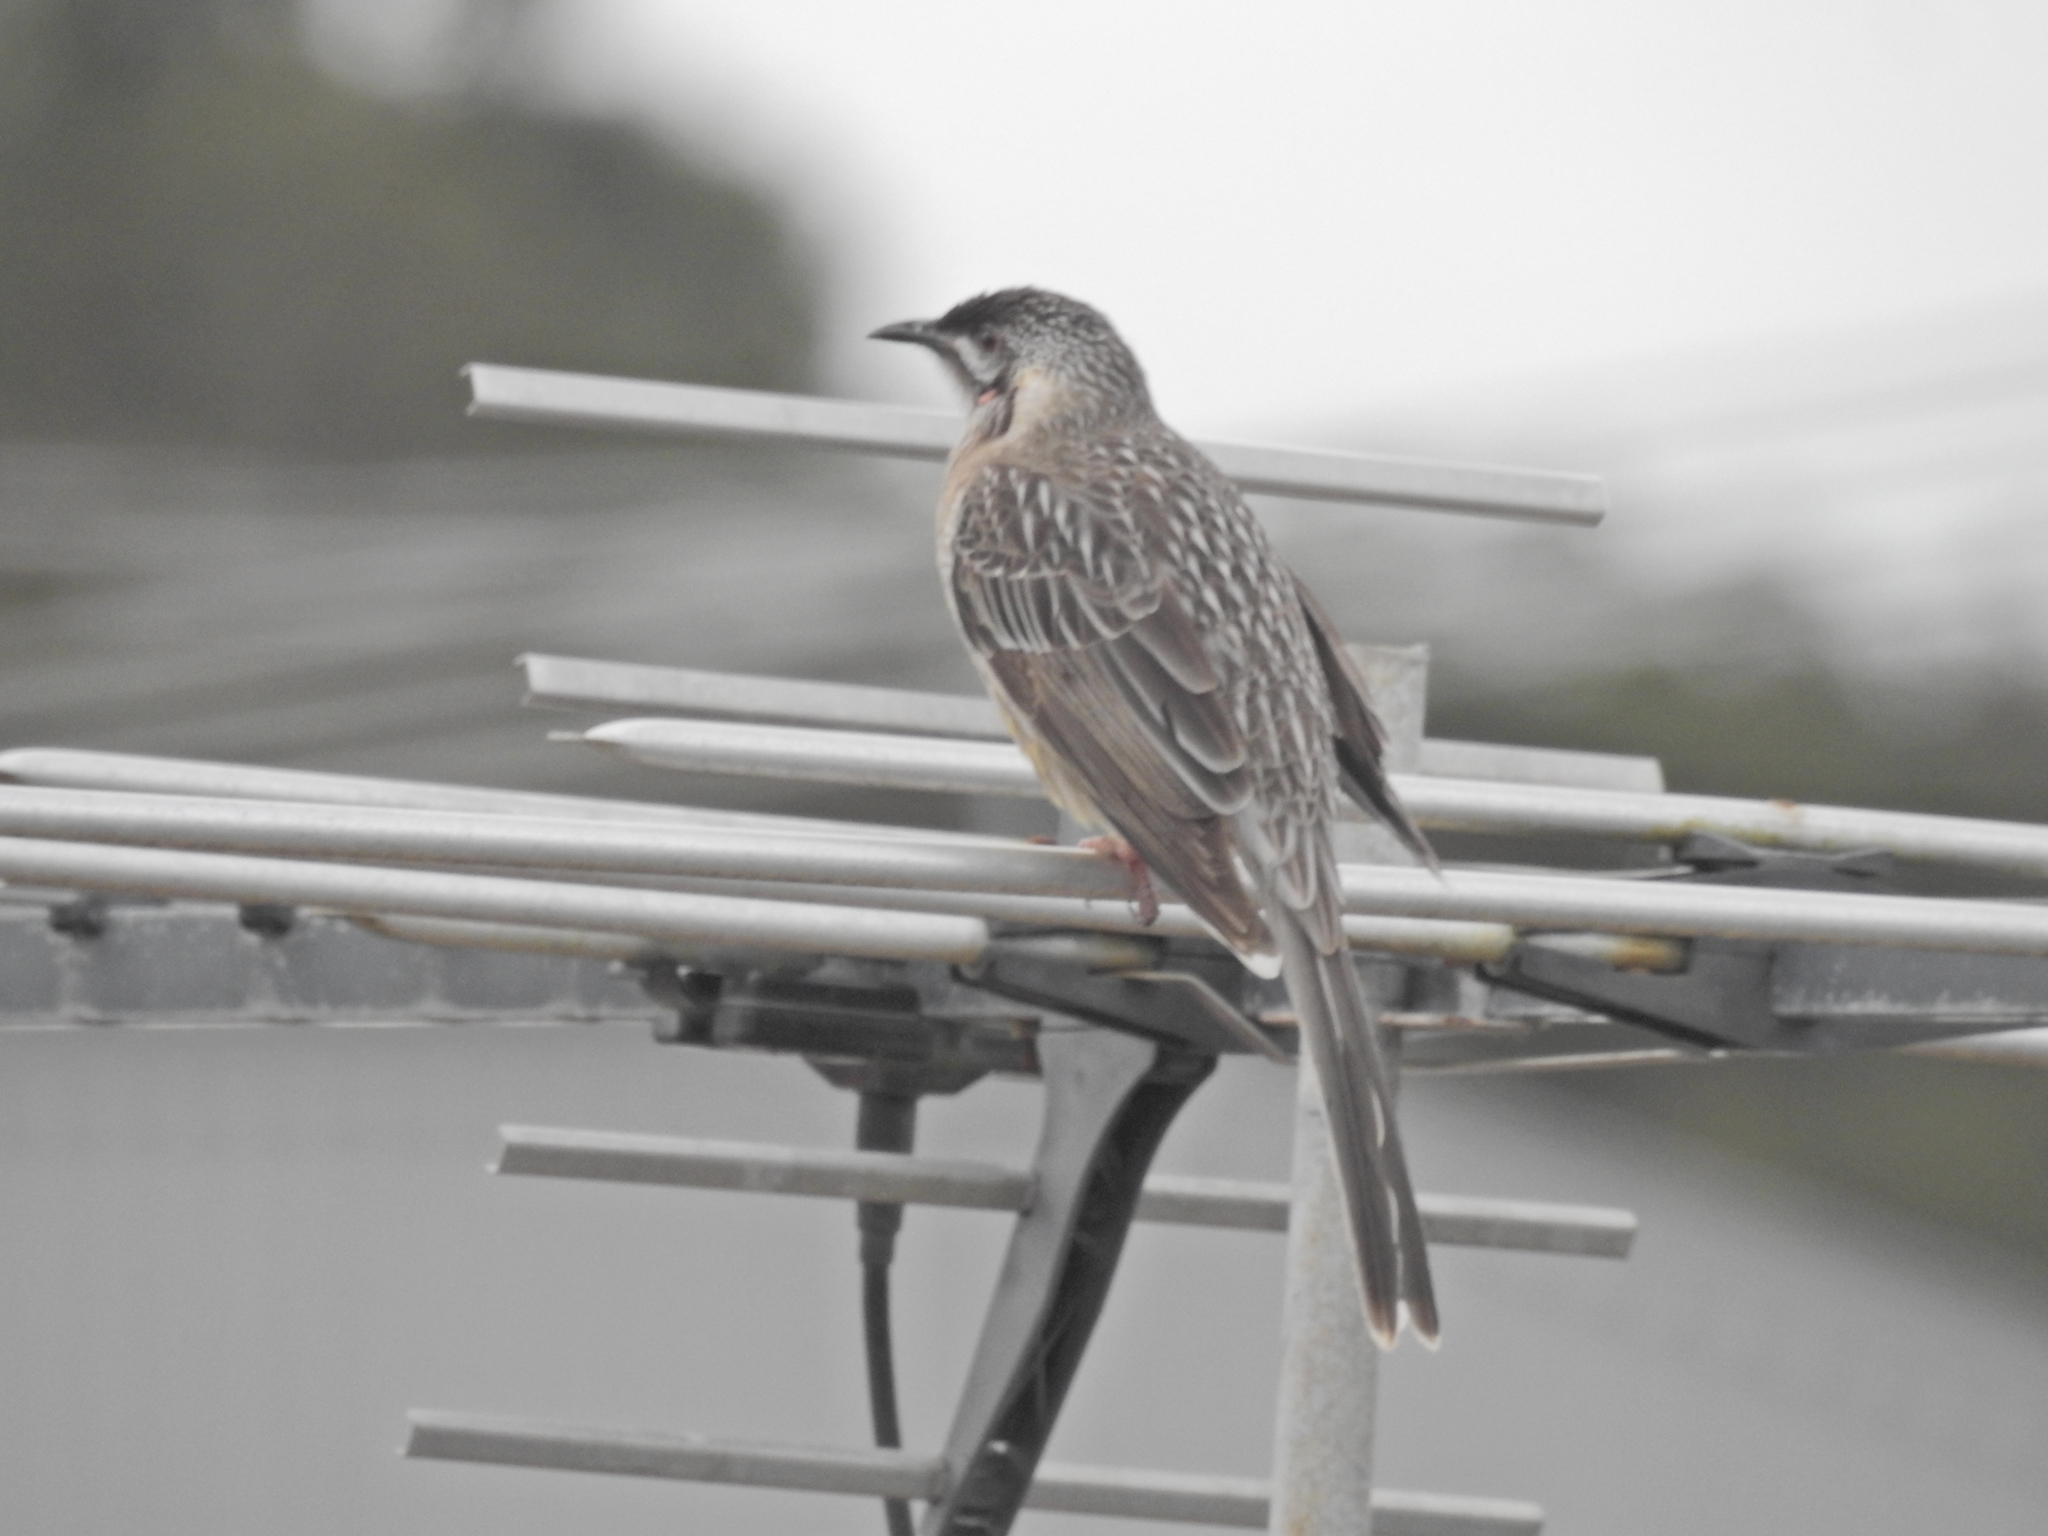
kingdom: Animalia
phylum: Chordata
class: Aves
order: Passeriformes
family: Meliphagidae
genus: Anthochaera
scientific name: Anthochaera carunculata
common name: Red wattlebird
